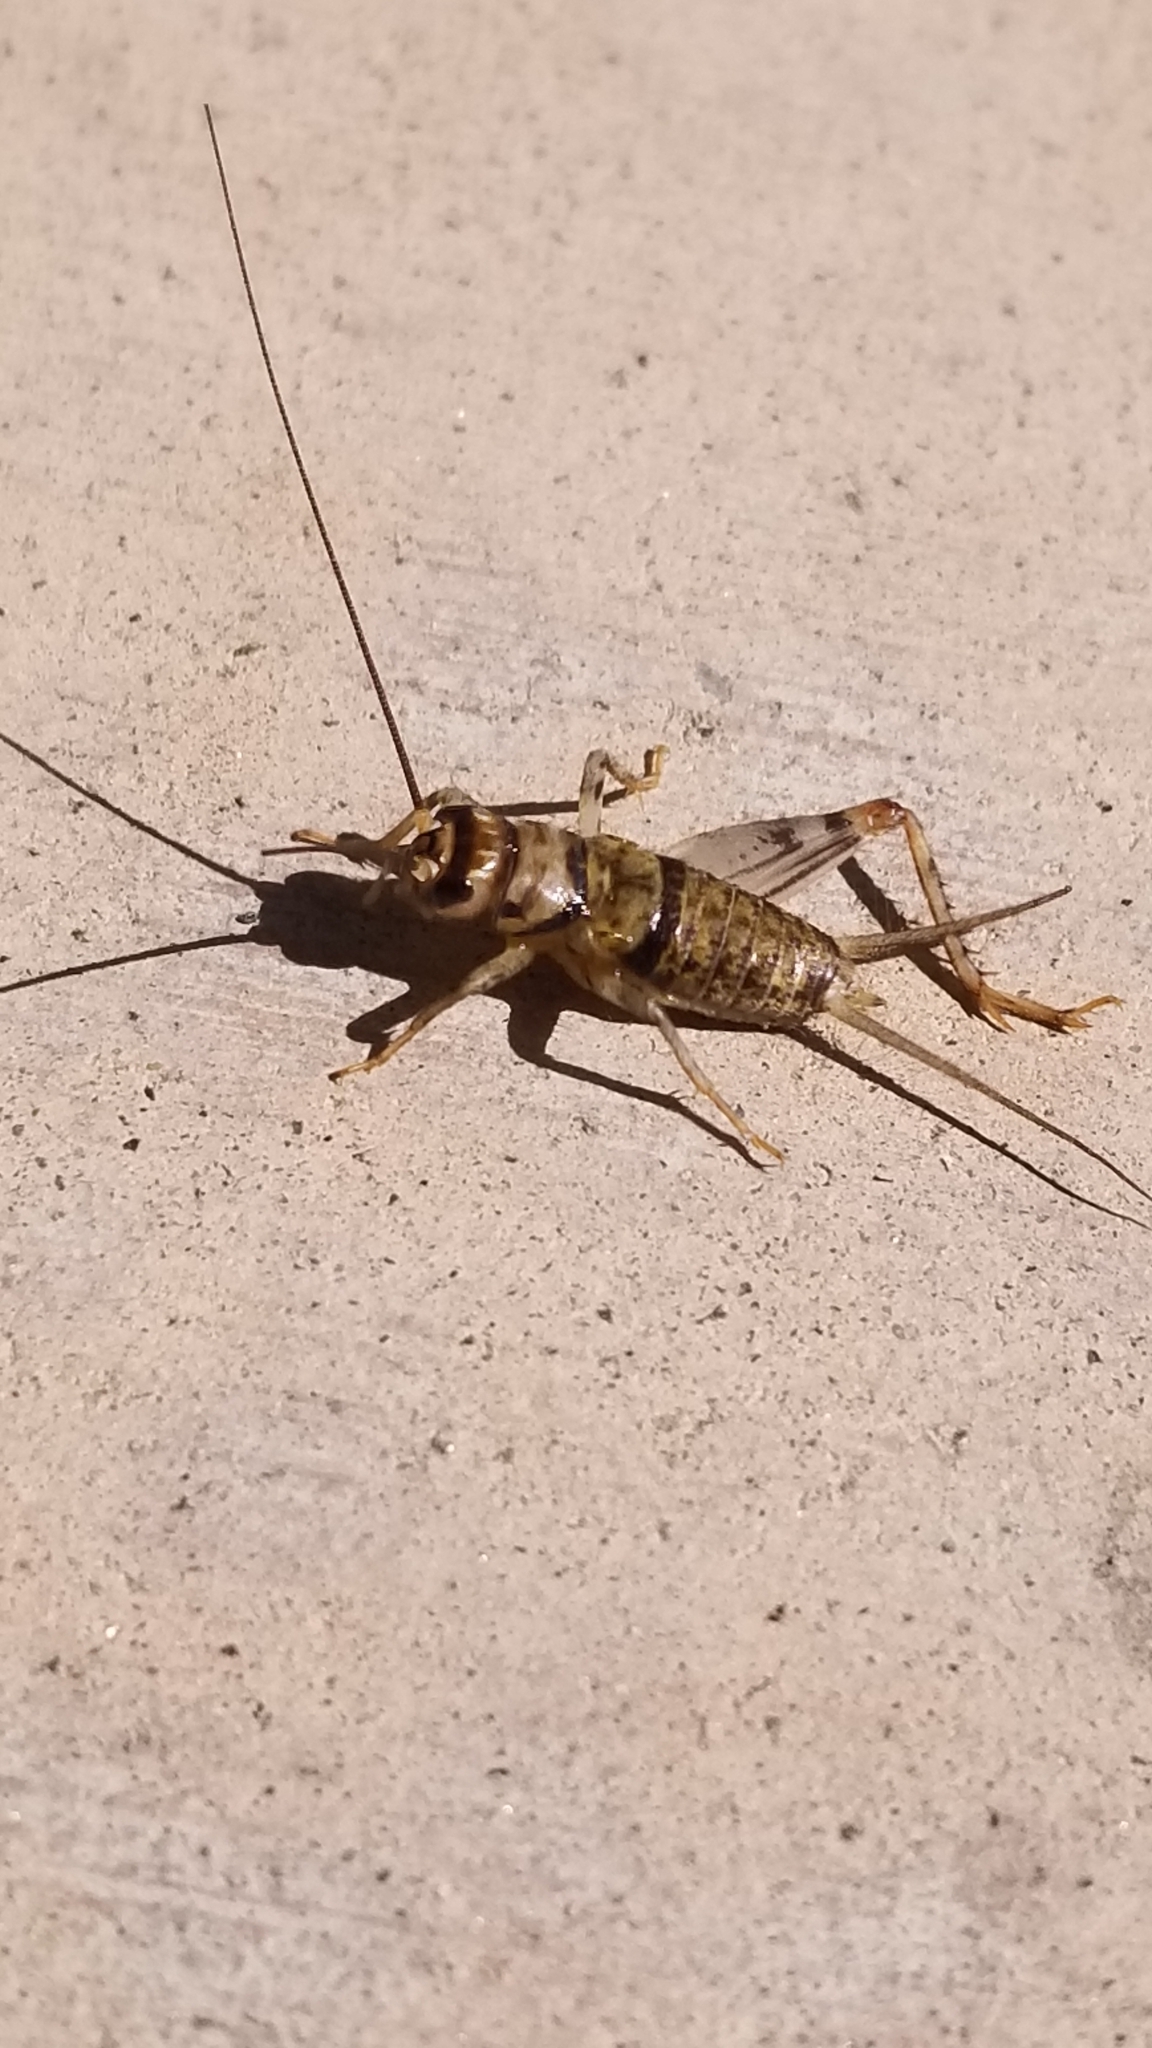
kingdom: Animalia
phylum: Arthropoda
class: Insecta
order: Orthoptera
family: Gryllidae
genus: Gryllodes
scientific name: Gryllodes sigillatus
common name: Tropical house cricket
